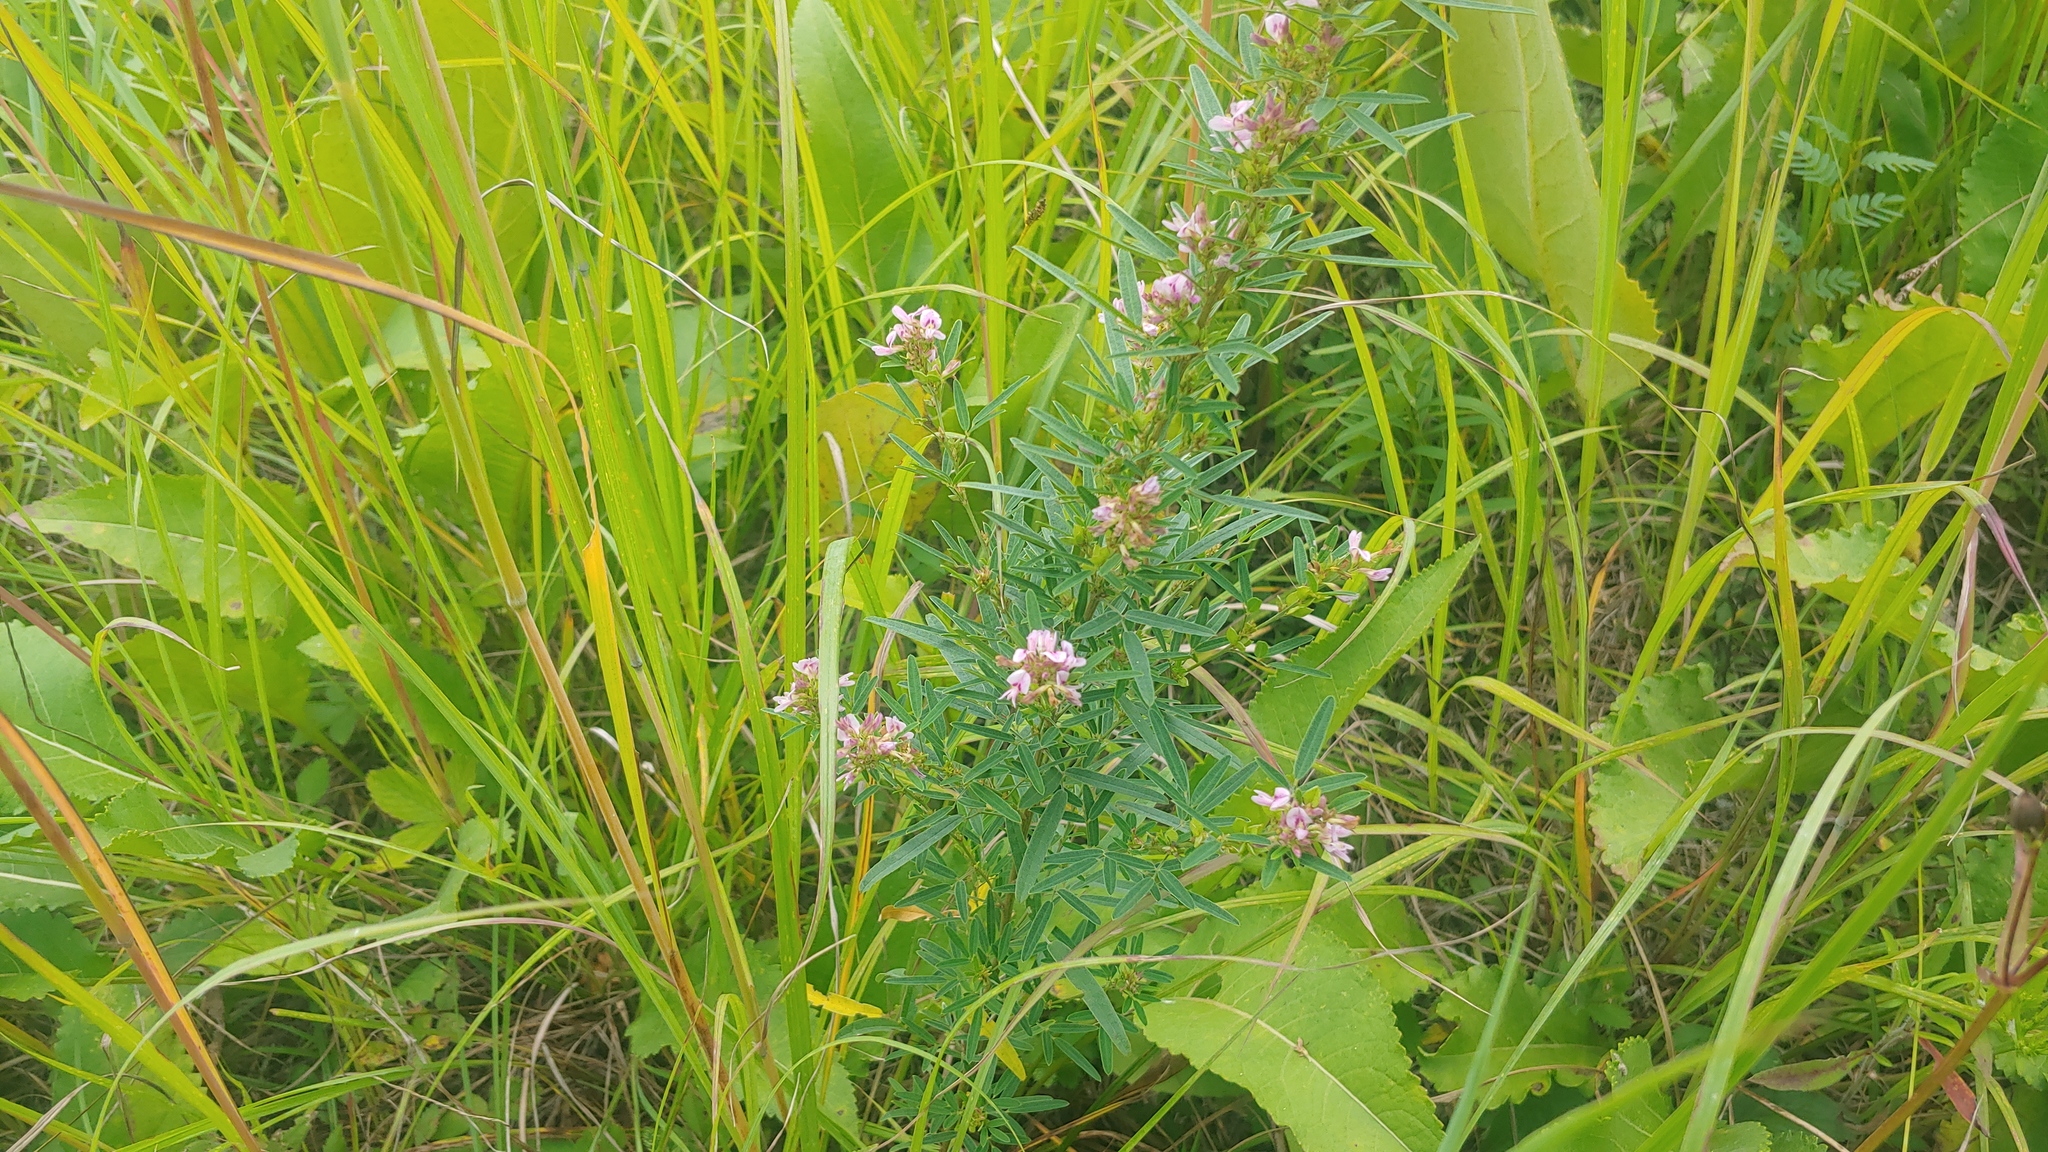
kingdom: Plantae
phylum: Tracheophyta
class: Magnoliopsida
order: Fabales
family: Fabaceae
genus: Lespedeza
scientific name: Lespedeza virginica
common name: Slender bush-clover
